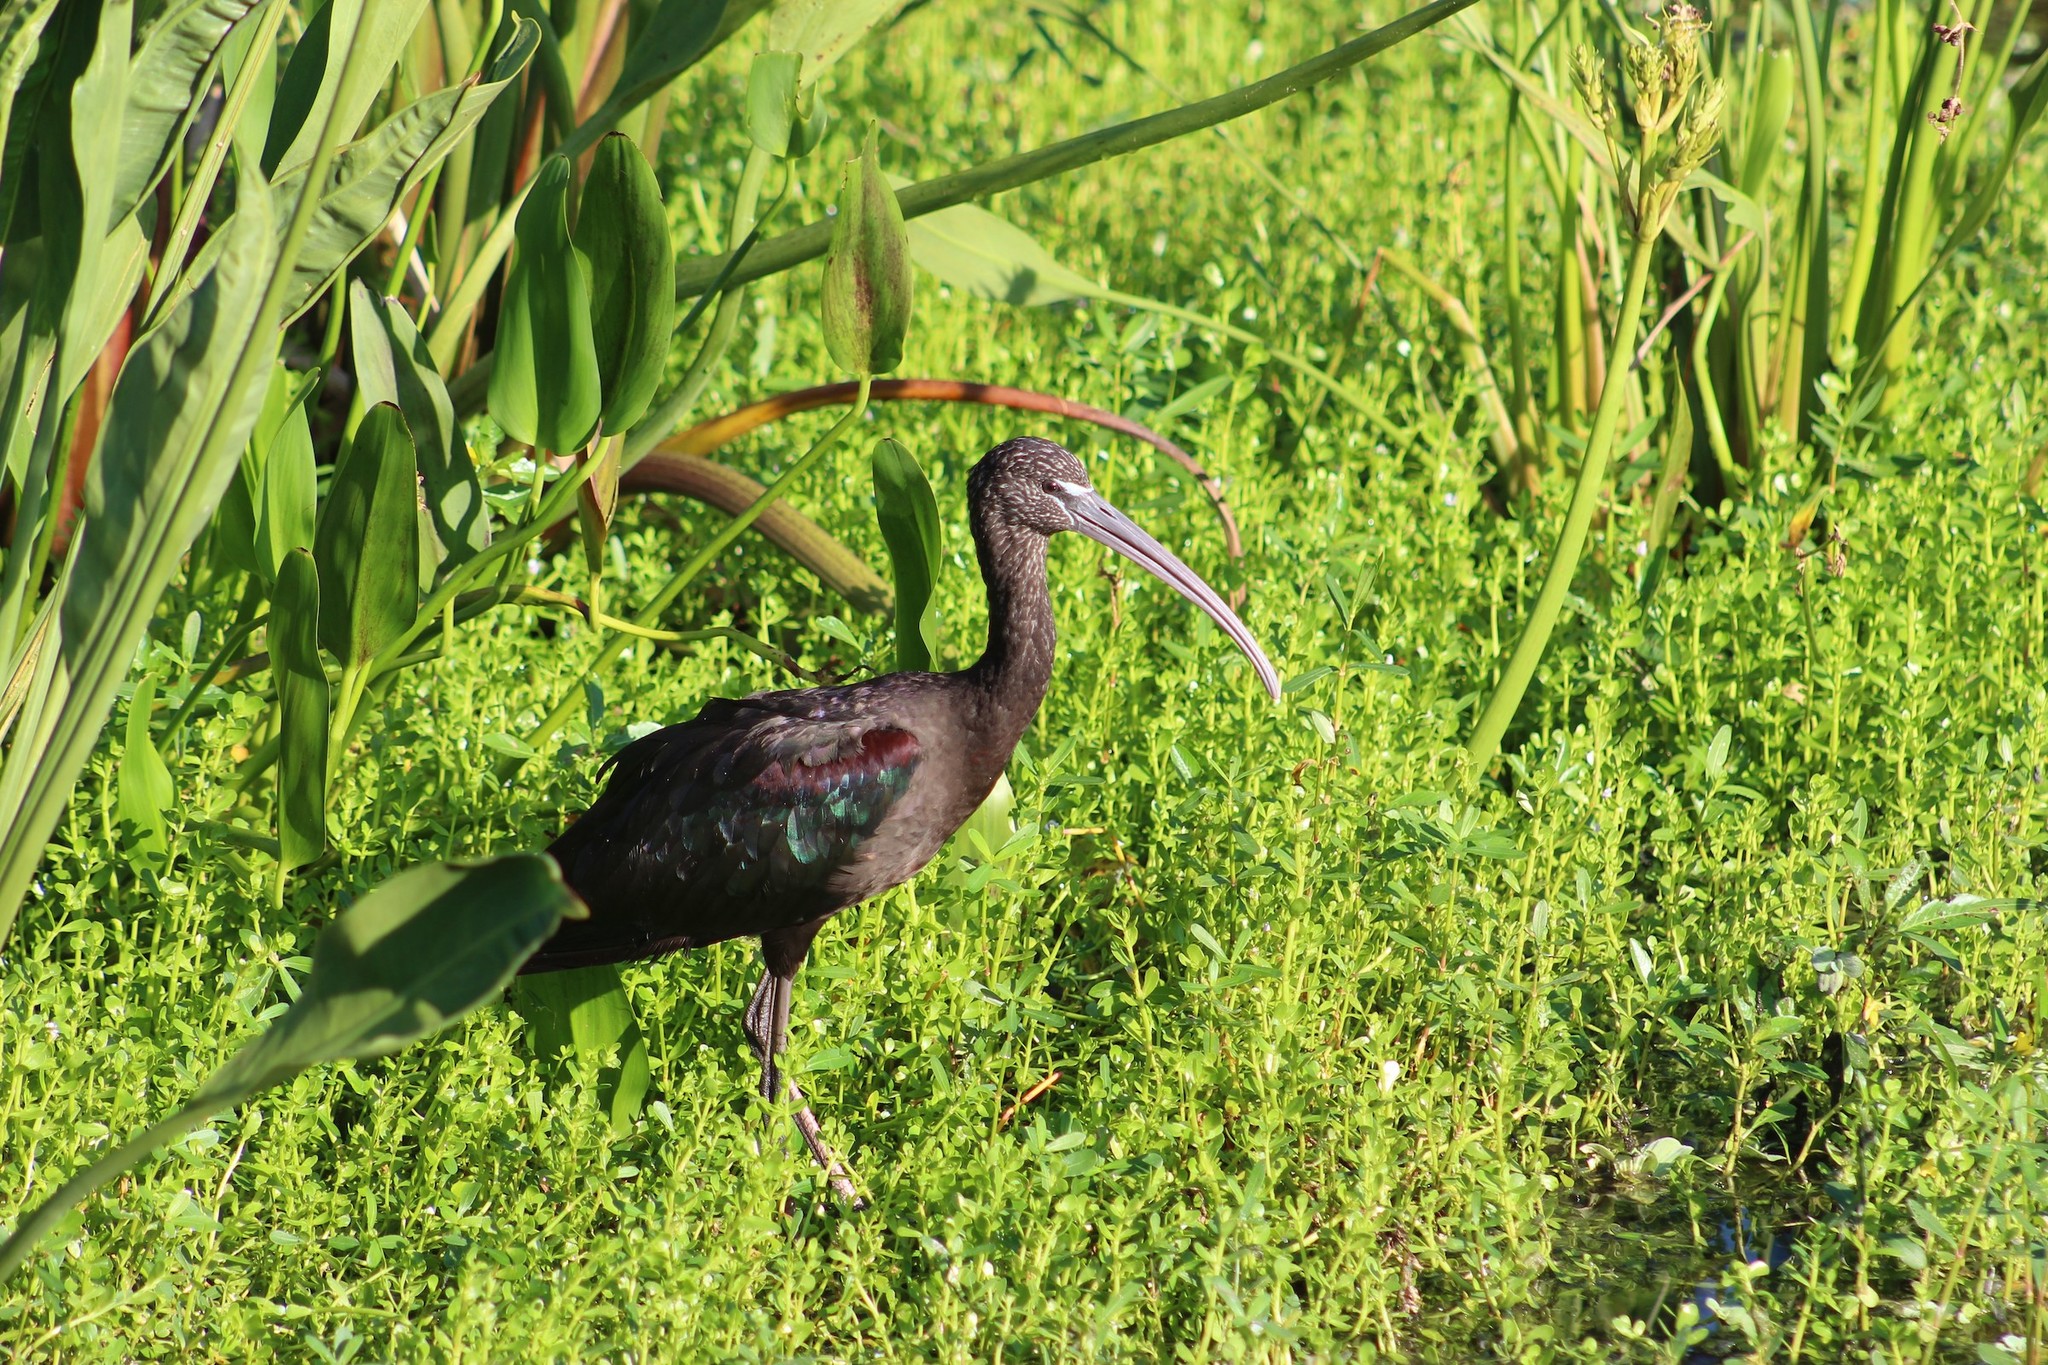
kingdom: Animalia
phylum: Chordata
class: Aves
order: Pelecaniformes
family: Threskiornithidae
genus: Plegadis
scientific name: Plegadis falcinellus
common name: Glossy ibis
